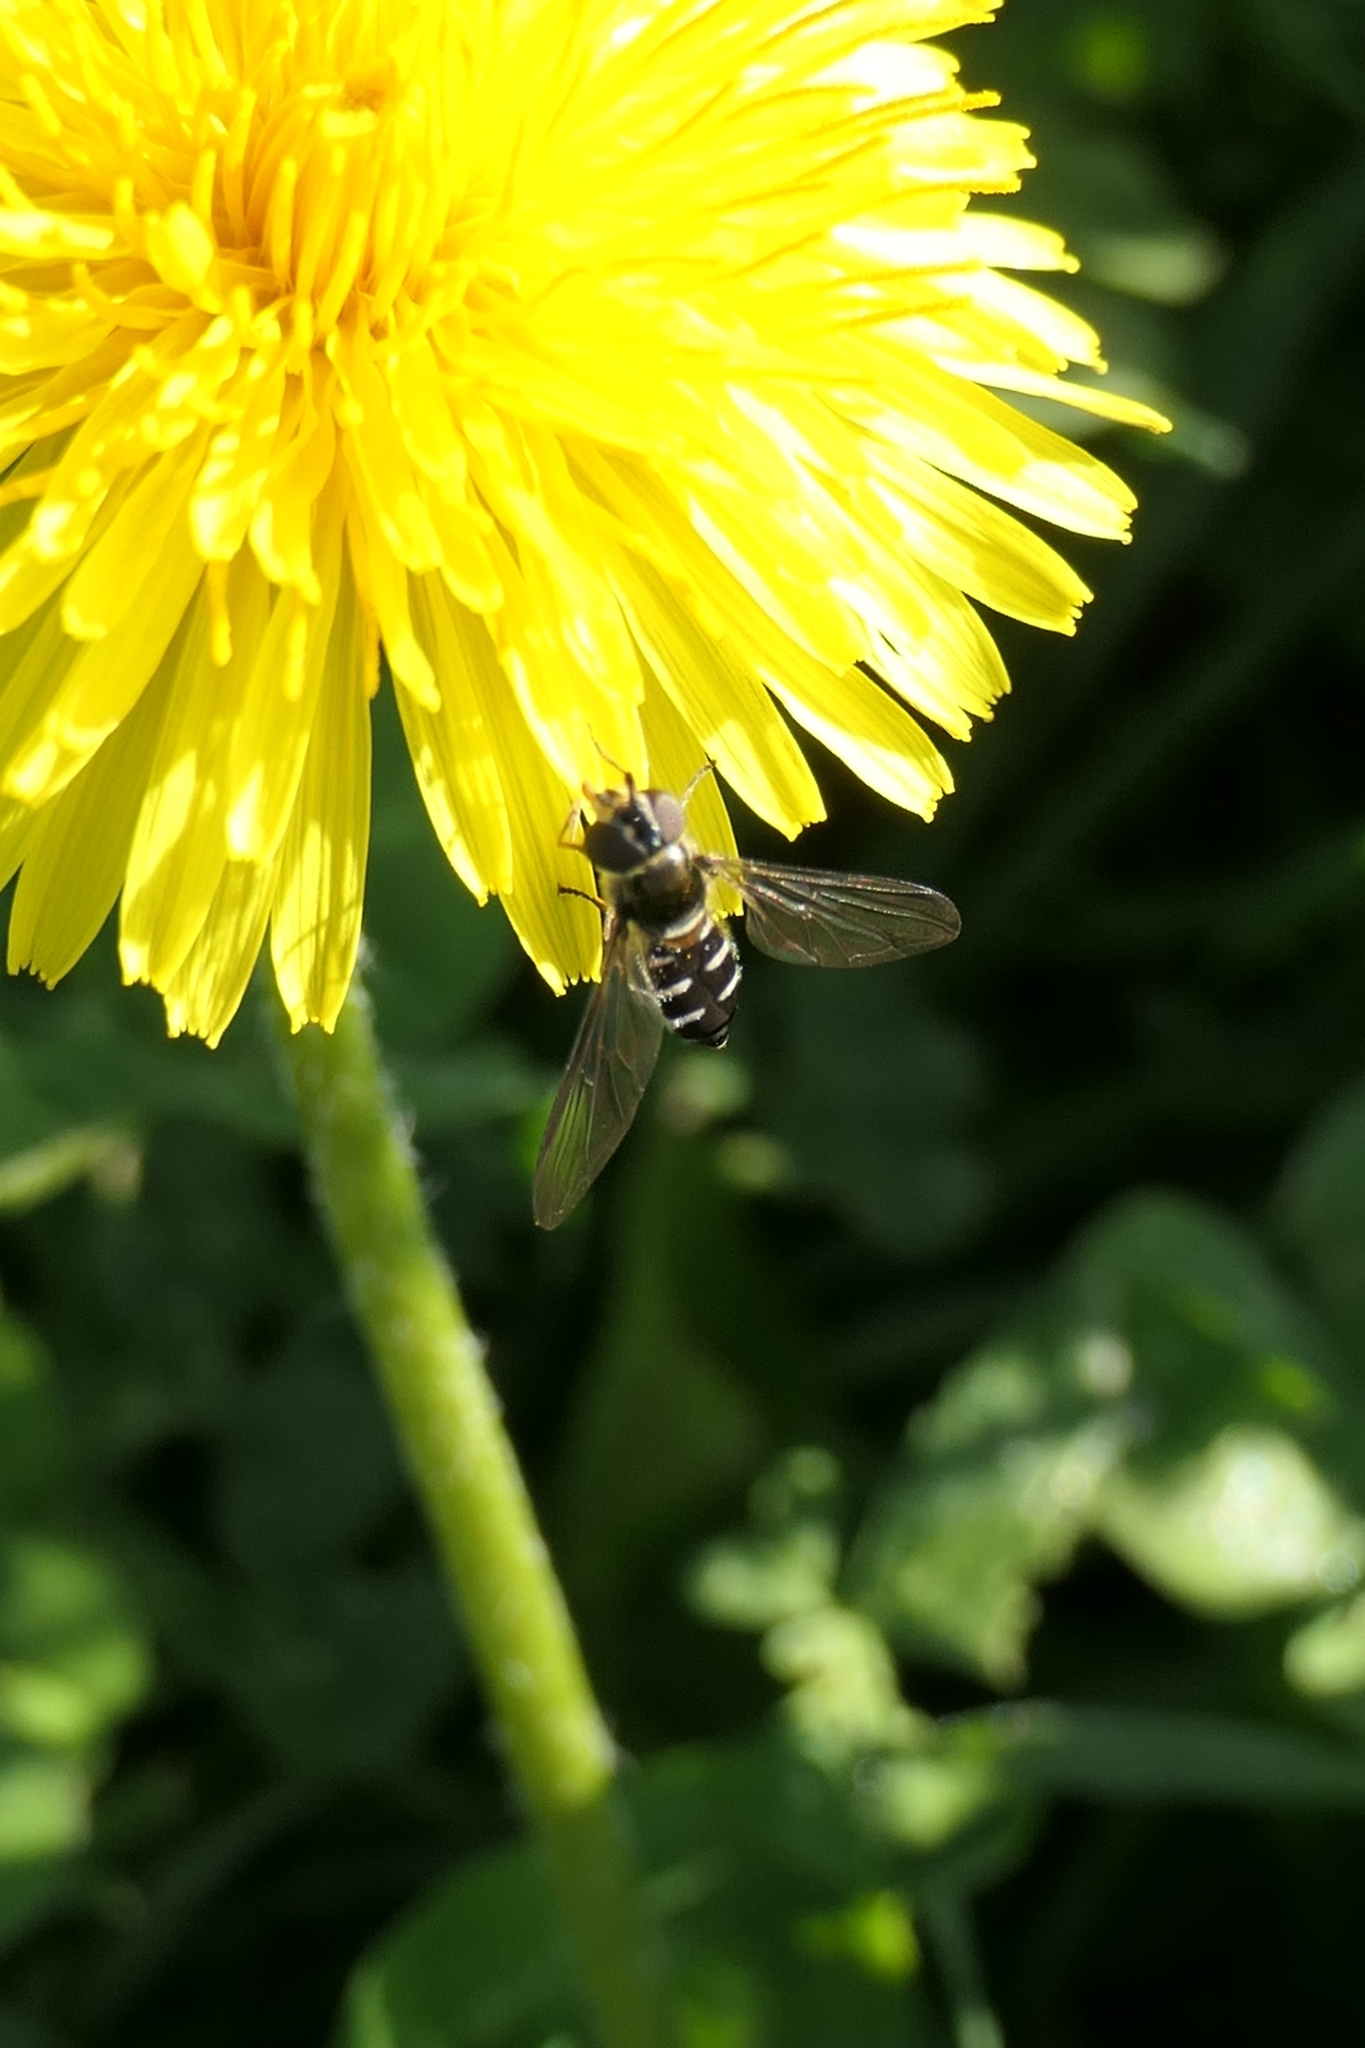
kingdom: Animalia
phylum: Arthropoda
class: Insecta
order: Diptera
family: Syrphidae
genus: Melangyna
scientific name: Melangyna novaezelandiae
